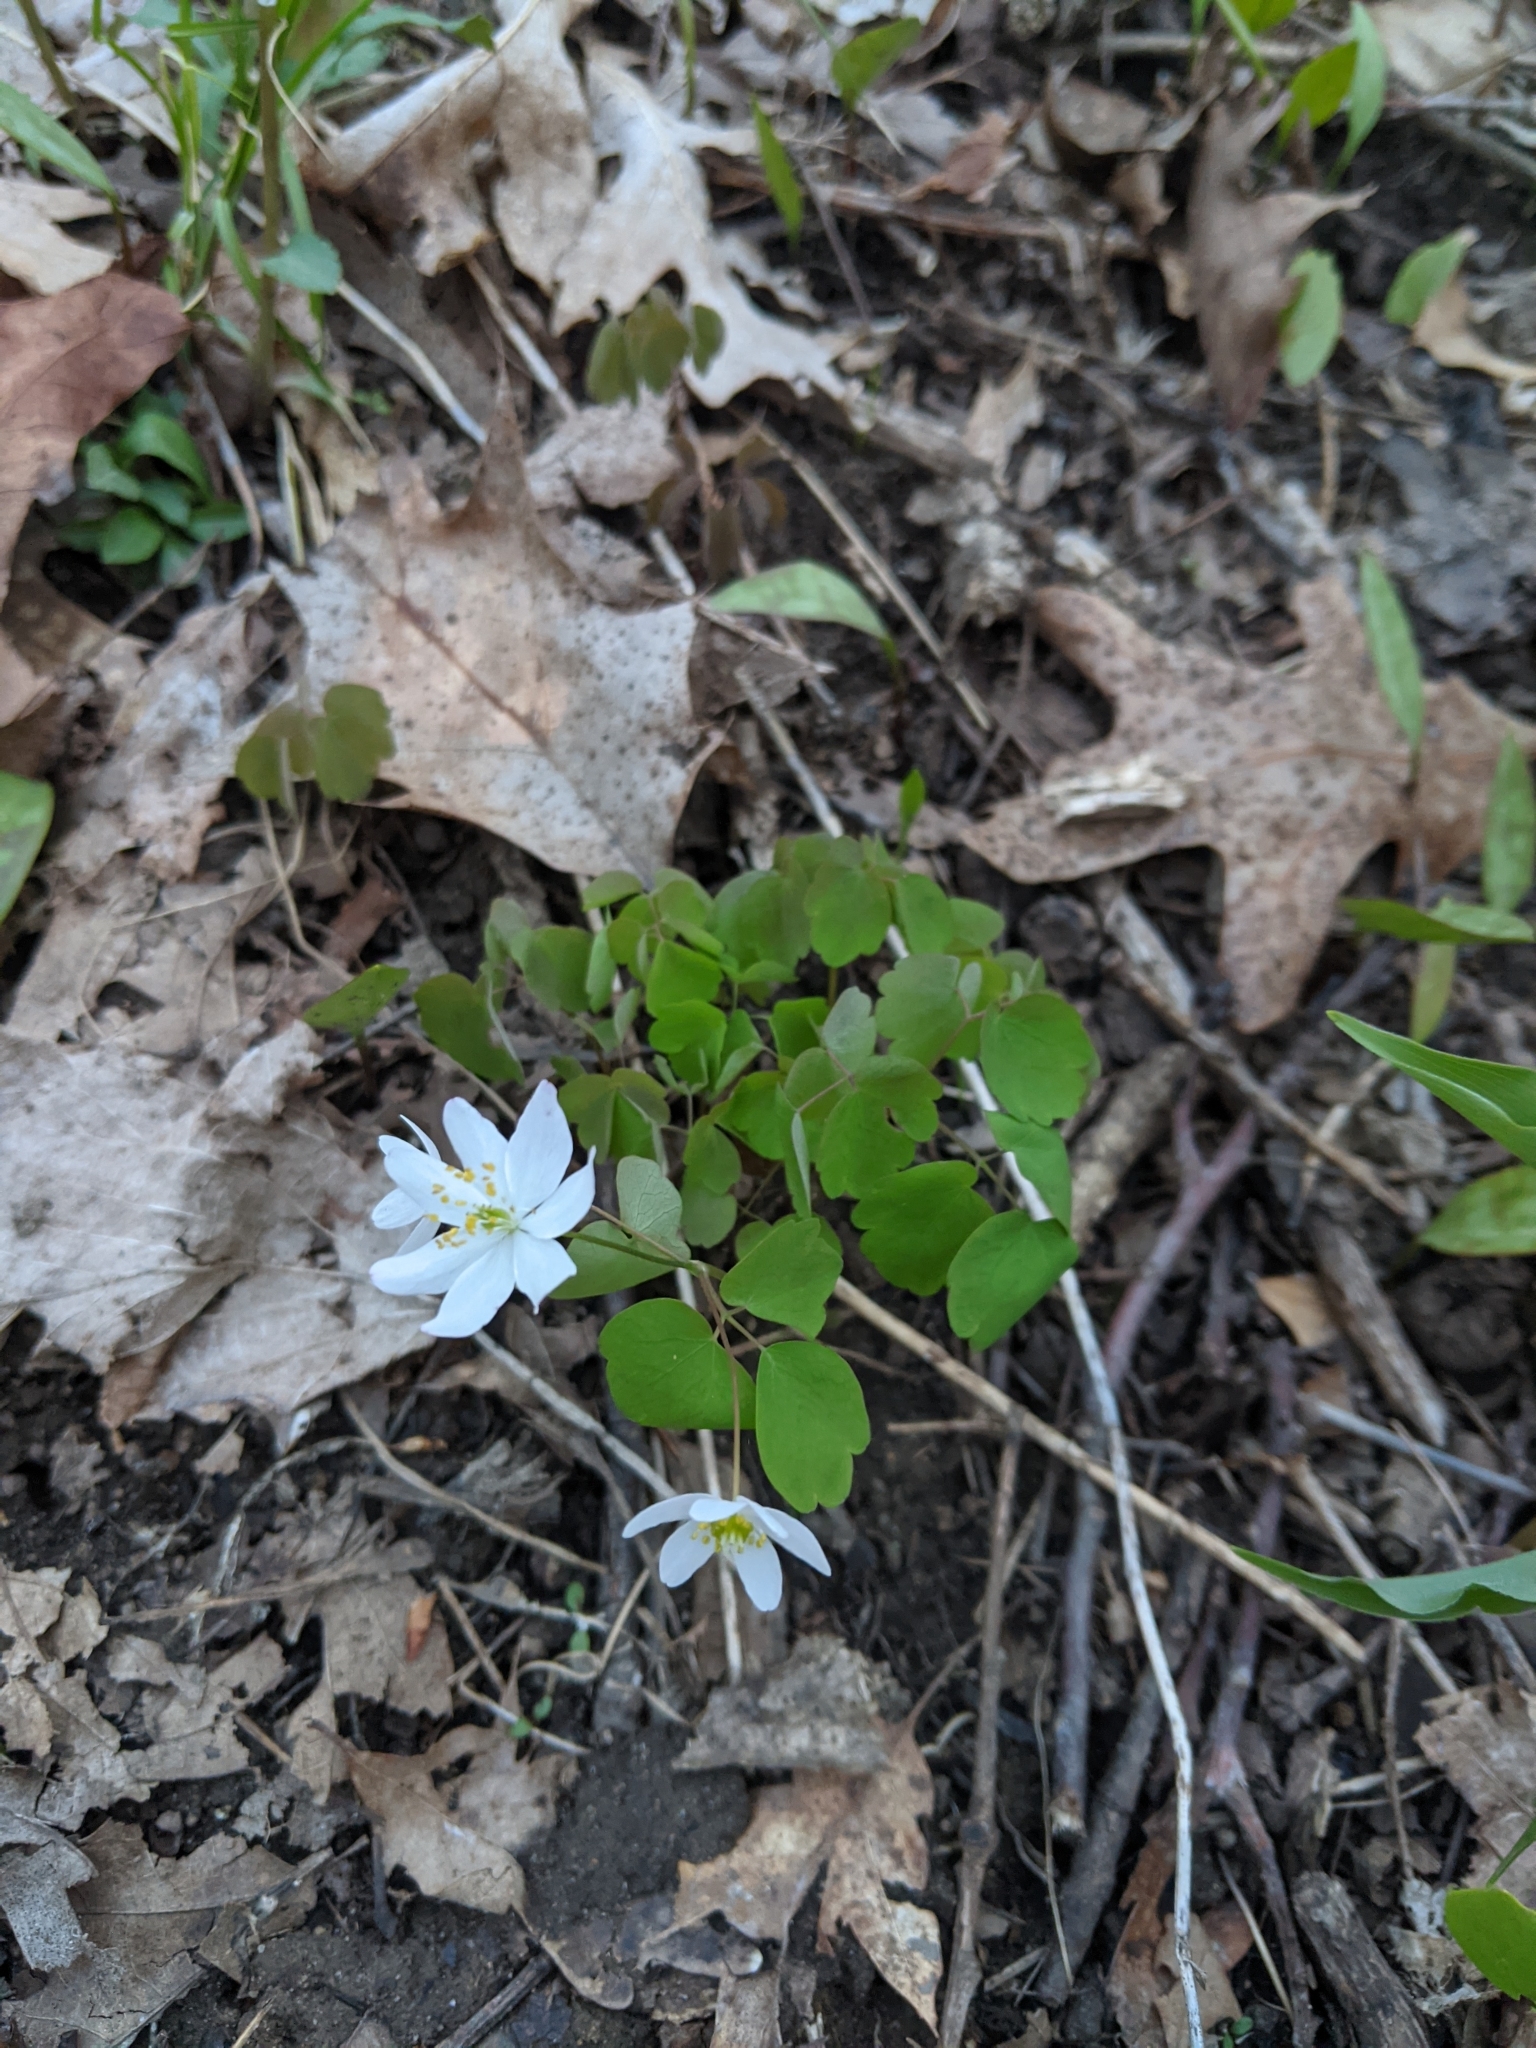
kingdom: Plantae
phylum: Tracheophyta
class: Magnoliopsida
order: Ranunculales
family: Ranunculaceae
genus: Thalictrum
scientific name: Thalictrum thalictroides
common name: Rue-anemone
